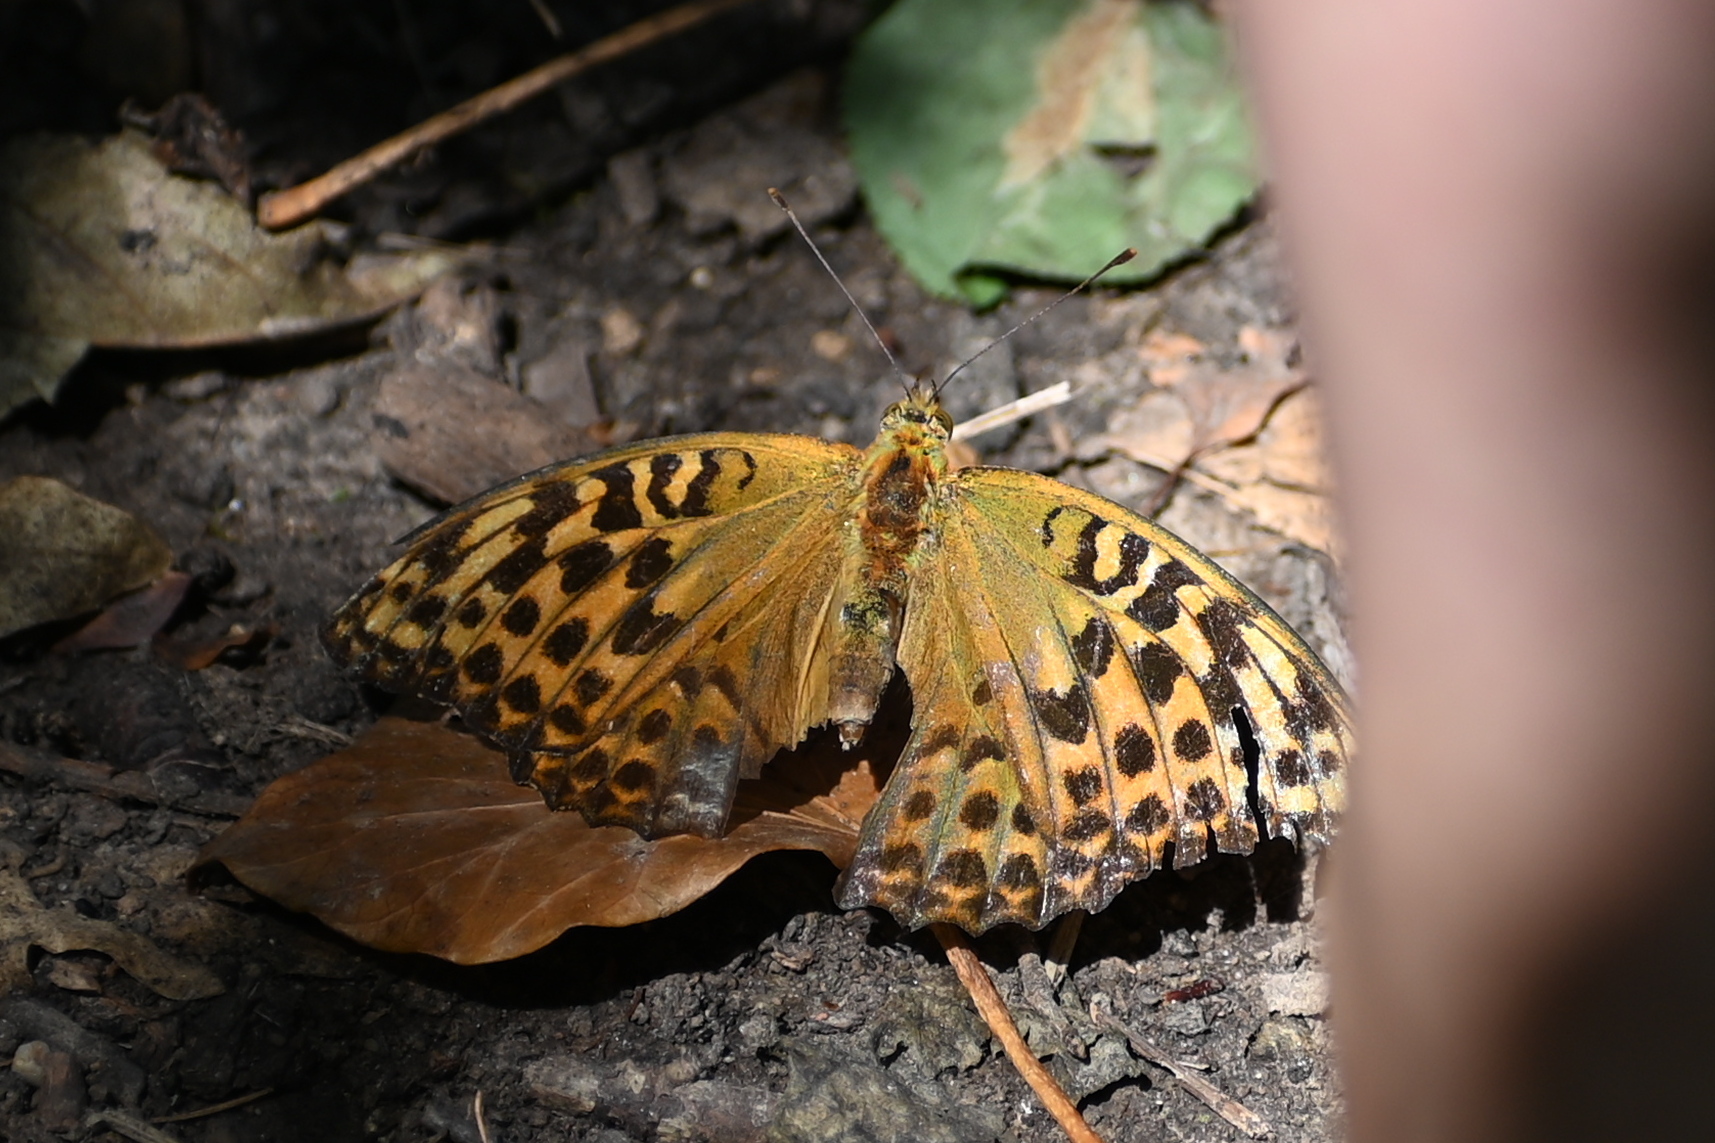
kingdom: Animalia
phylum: Arthropoda
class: Insecta
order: Lepidoptera
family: Nymphalidae
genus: Argynnis
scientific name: Argynnis paphia
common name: Silver-washed fritillary
